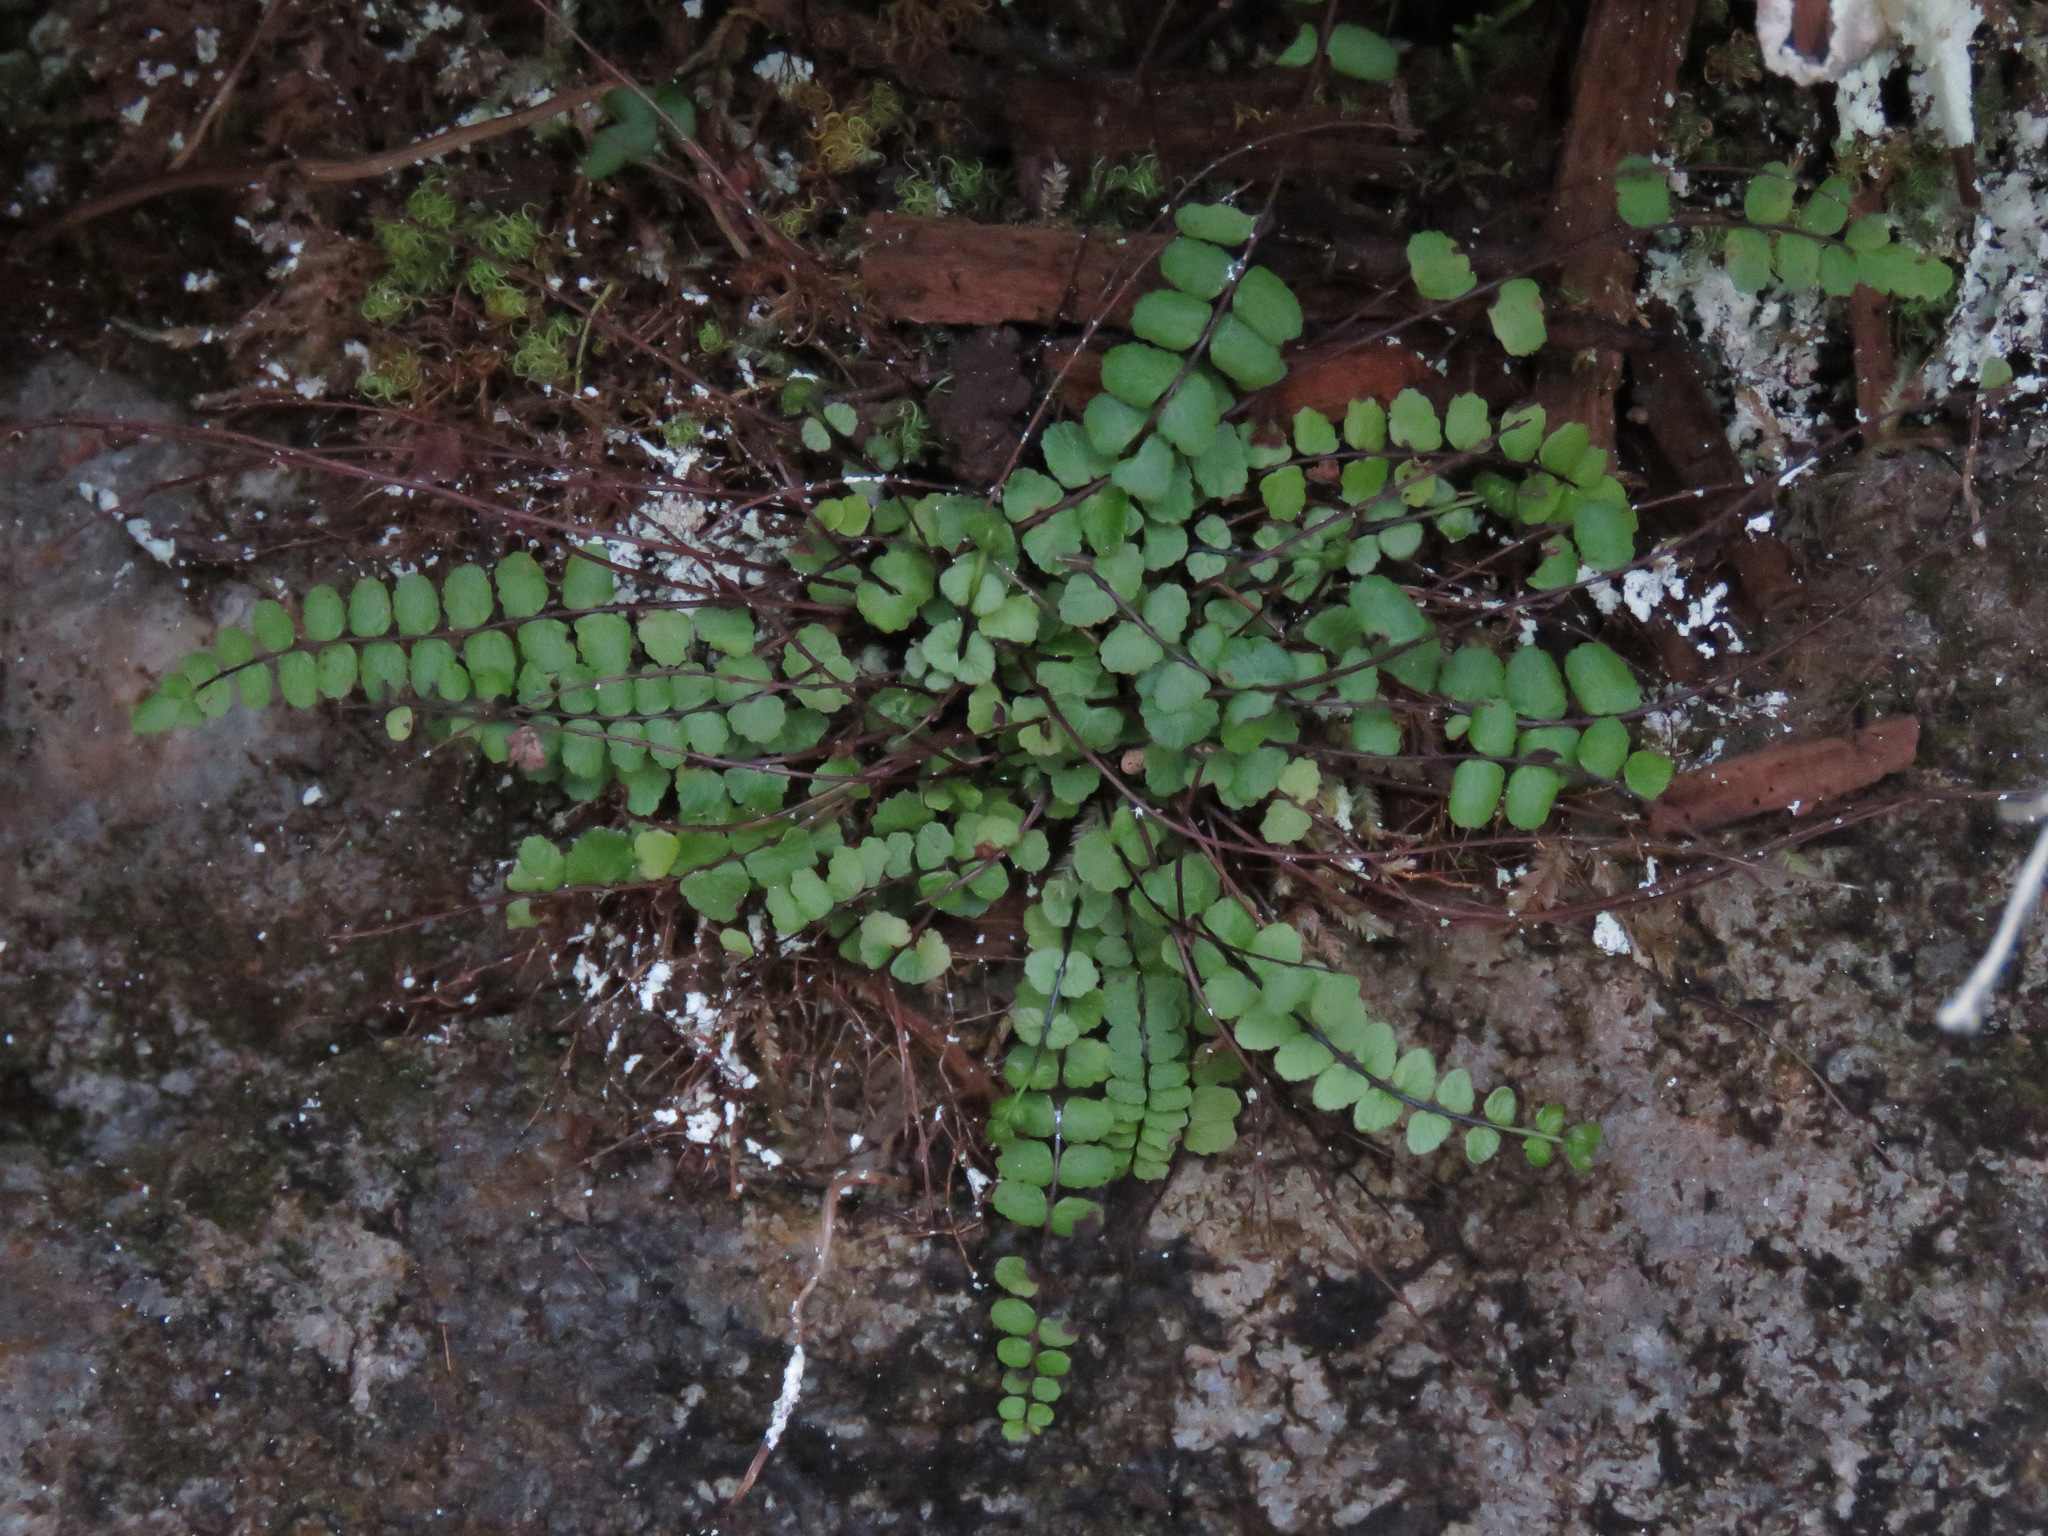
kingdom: Plantae
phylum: Tracheophyta
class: Polypodiopsida
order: Polypodiales
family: Aspleniaceae
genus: Asplenium
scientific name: Asplenium trichomanes
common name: Maidenhair spleenwort
